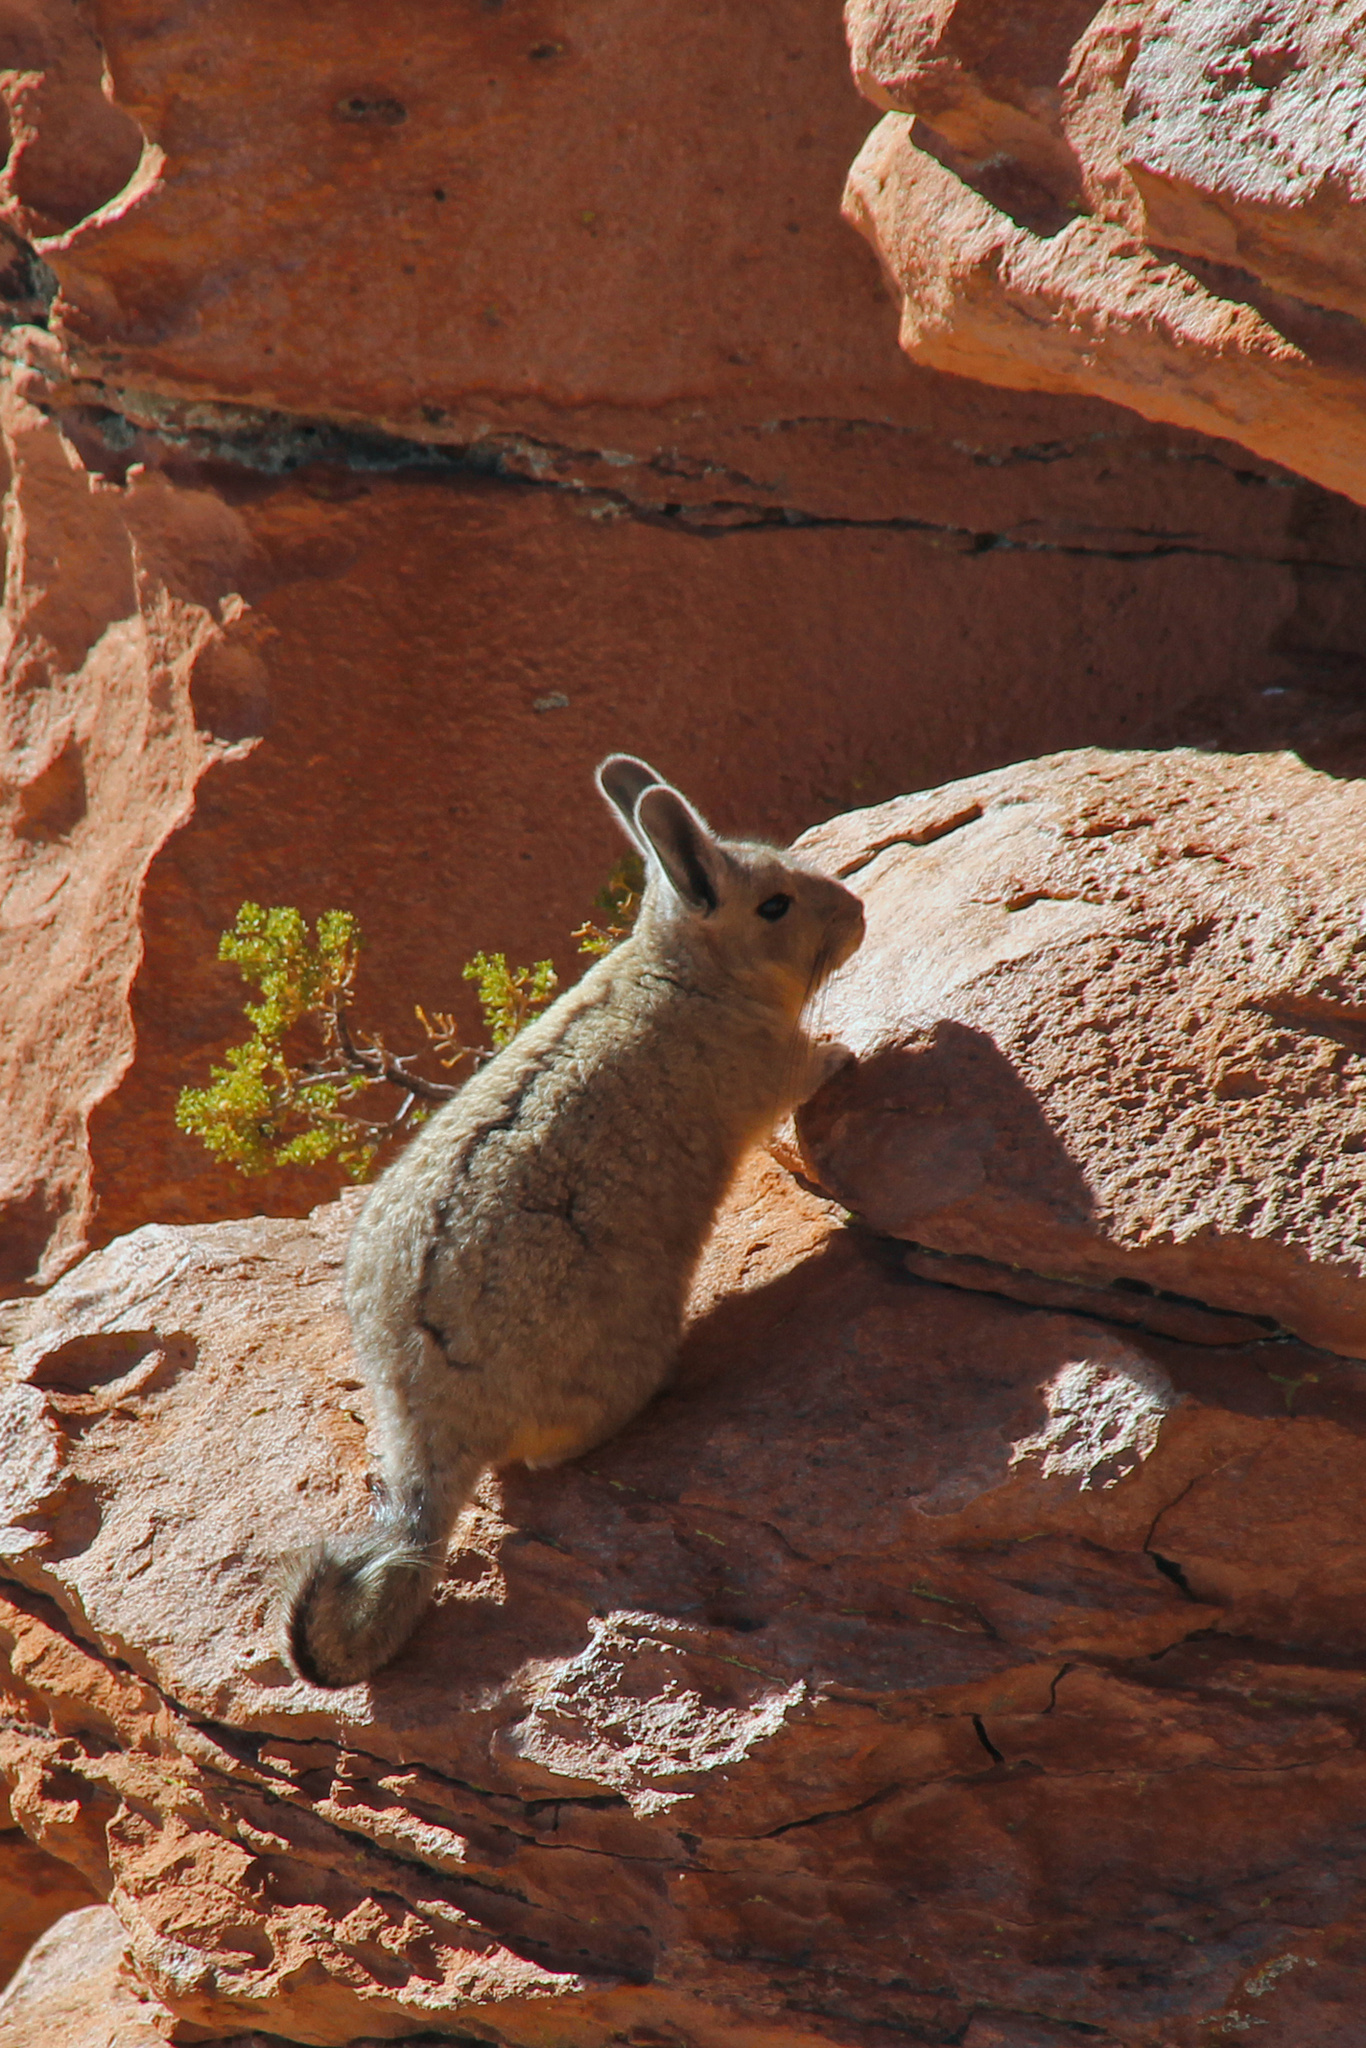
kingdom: Animalia
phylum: Chordata
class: Mammalia
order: Rodentia
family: Chinchillidae
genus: Lagidium
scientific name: Lagidium viscacia
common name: Southern viscacha
